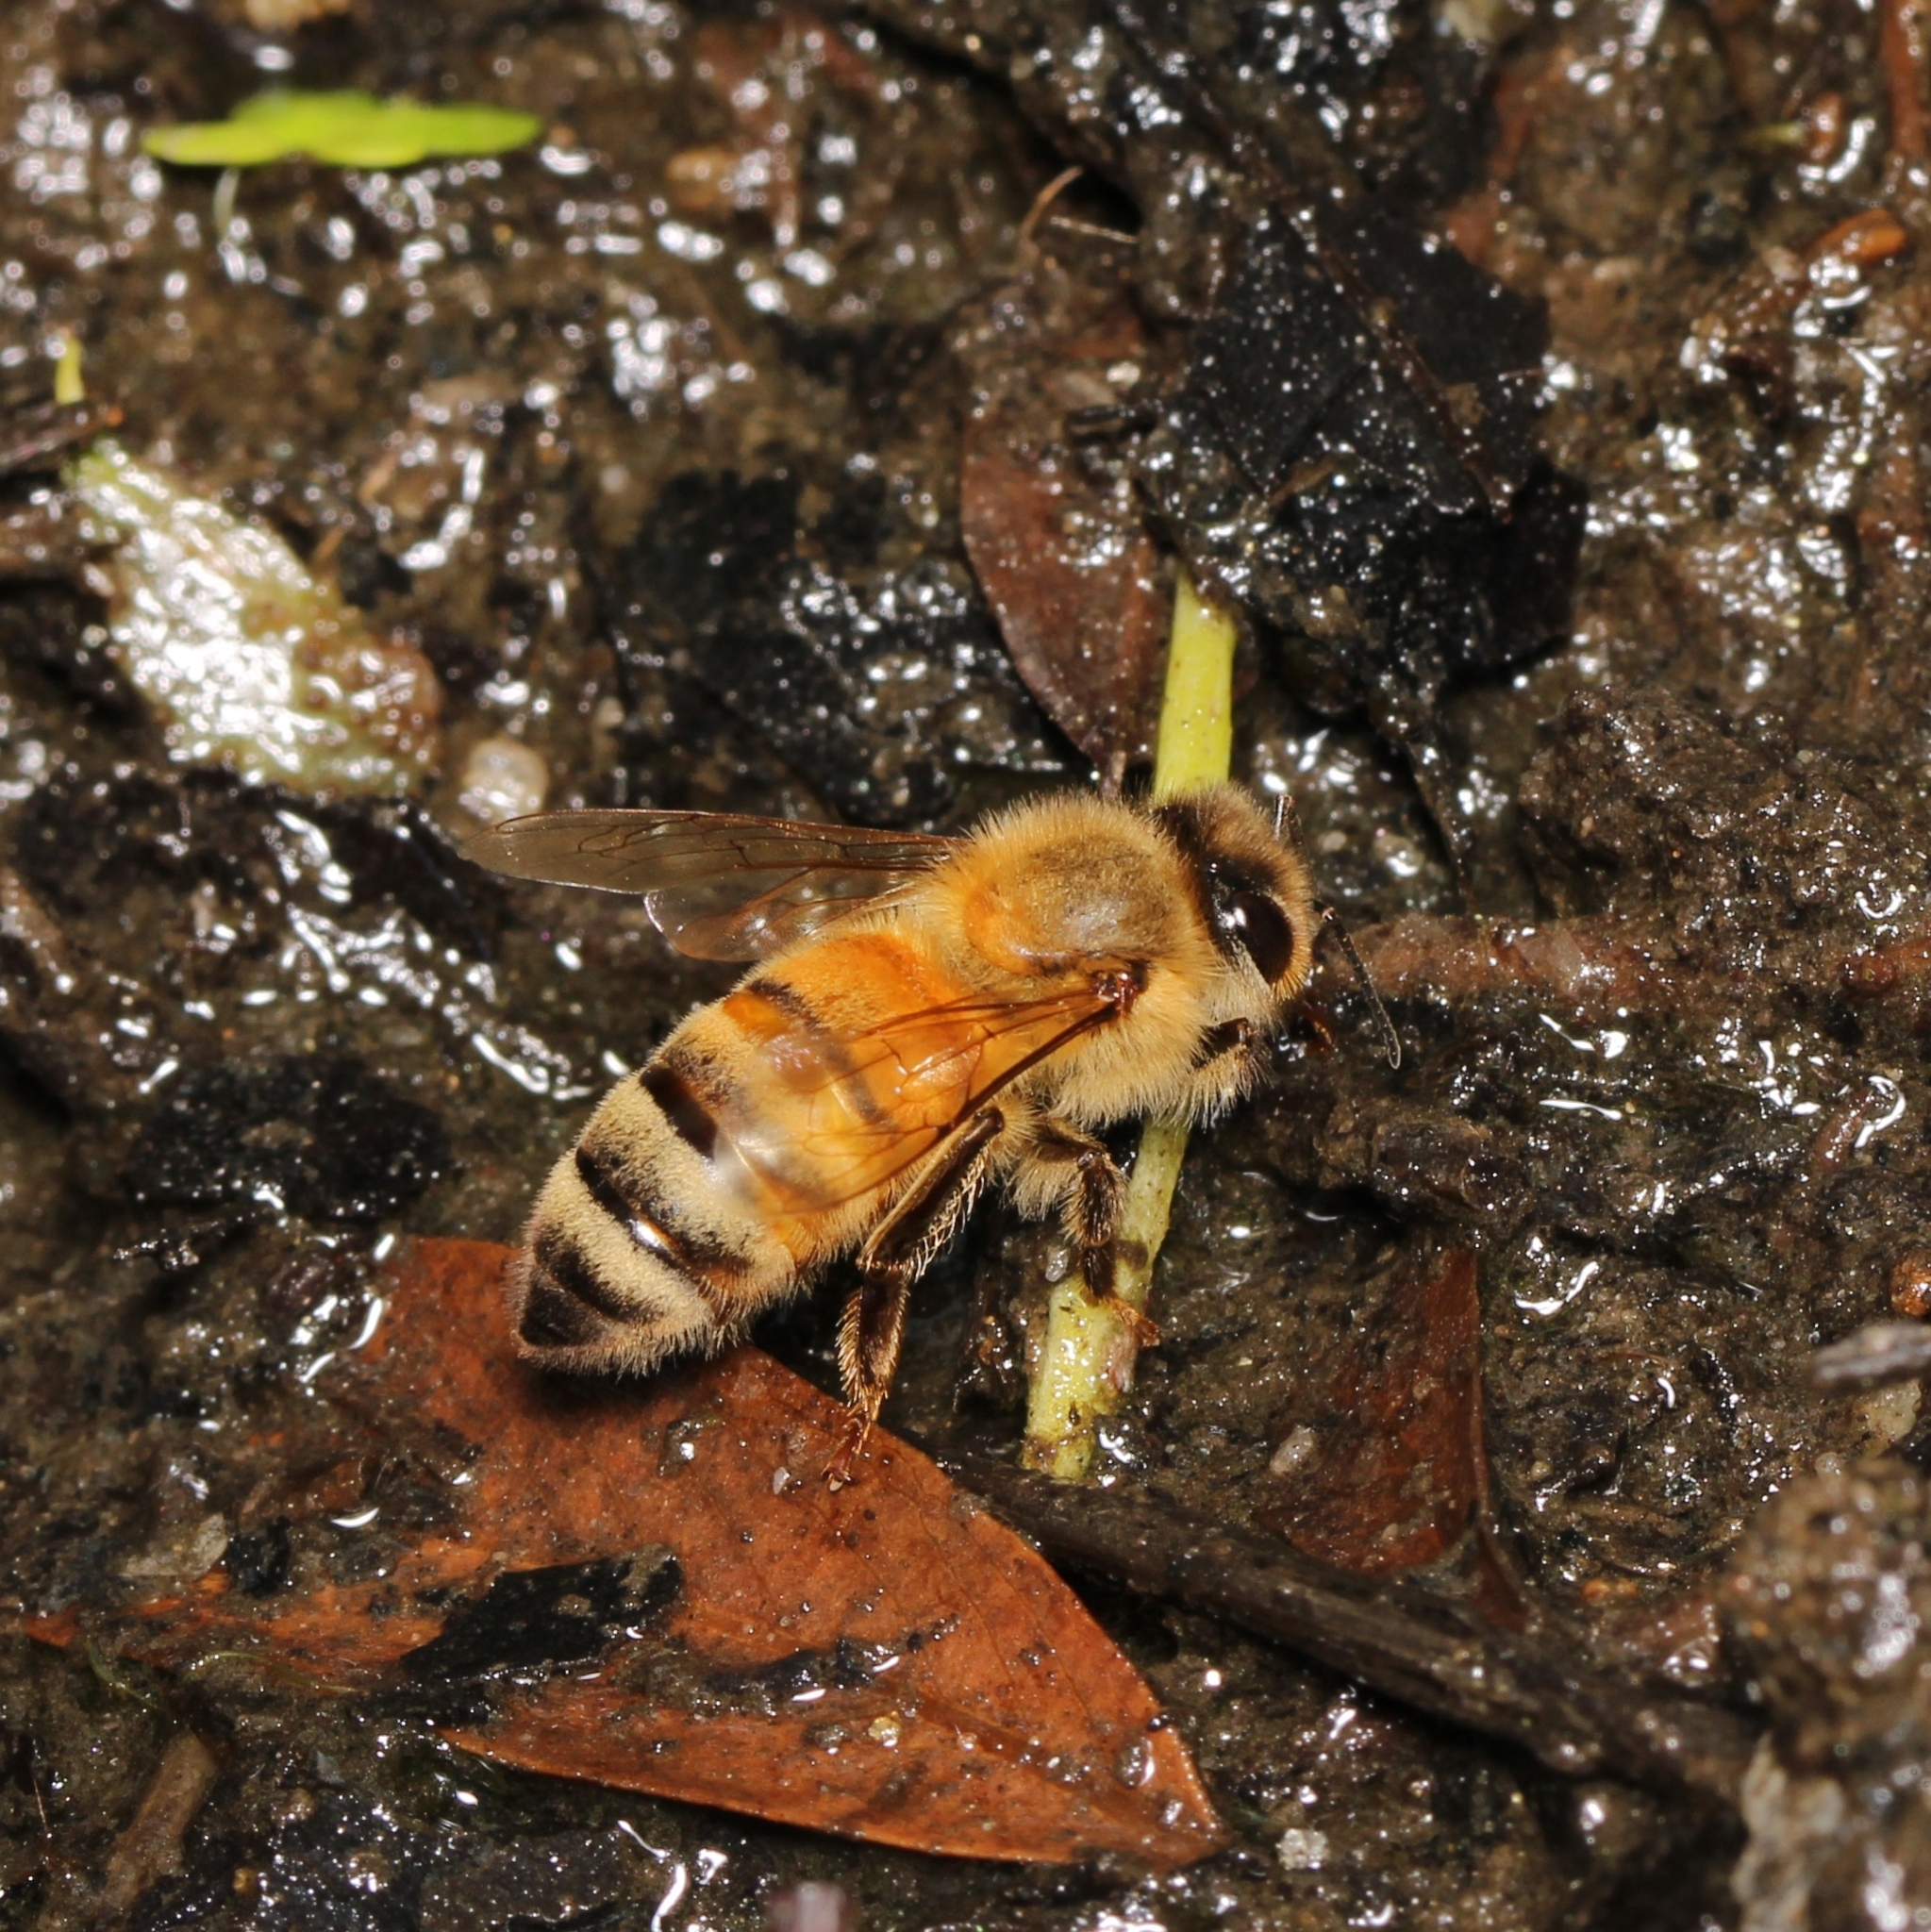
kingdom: Animalia
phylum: Arthropoda
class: Insecta
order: Hymenoptera
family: Apidae
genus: Apis
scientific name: Apis mellifera
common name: Honey bee
